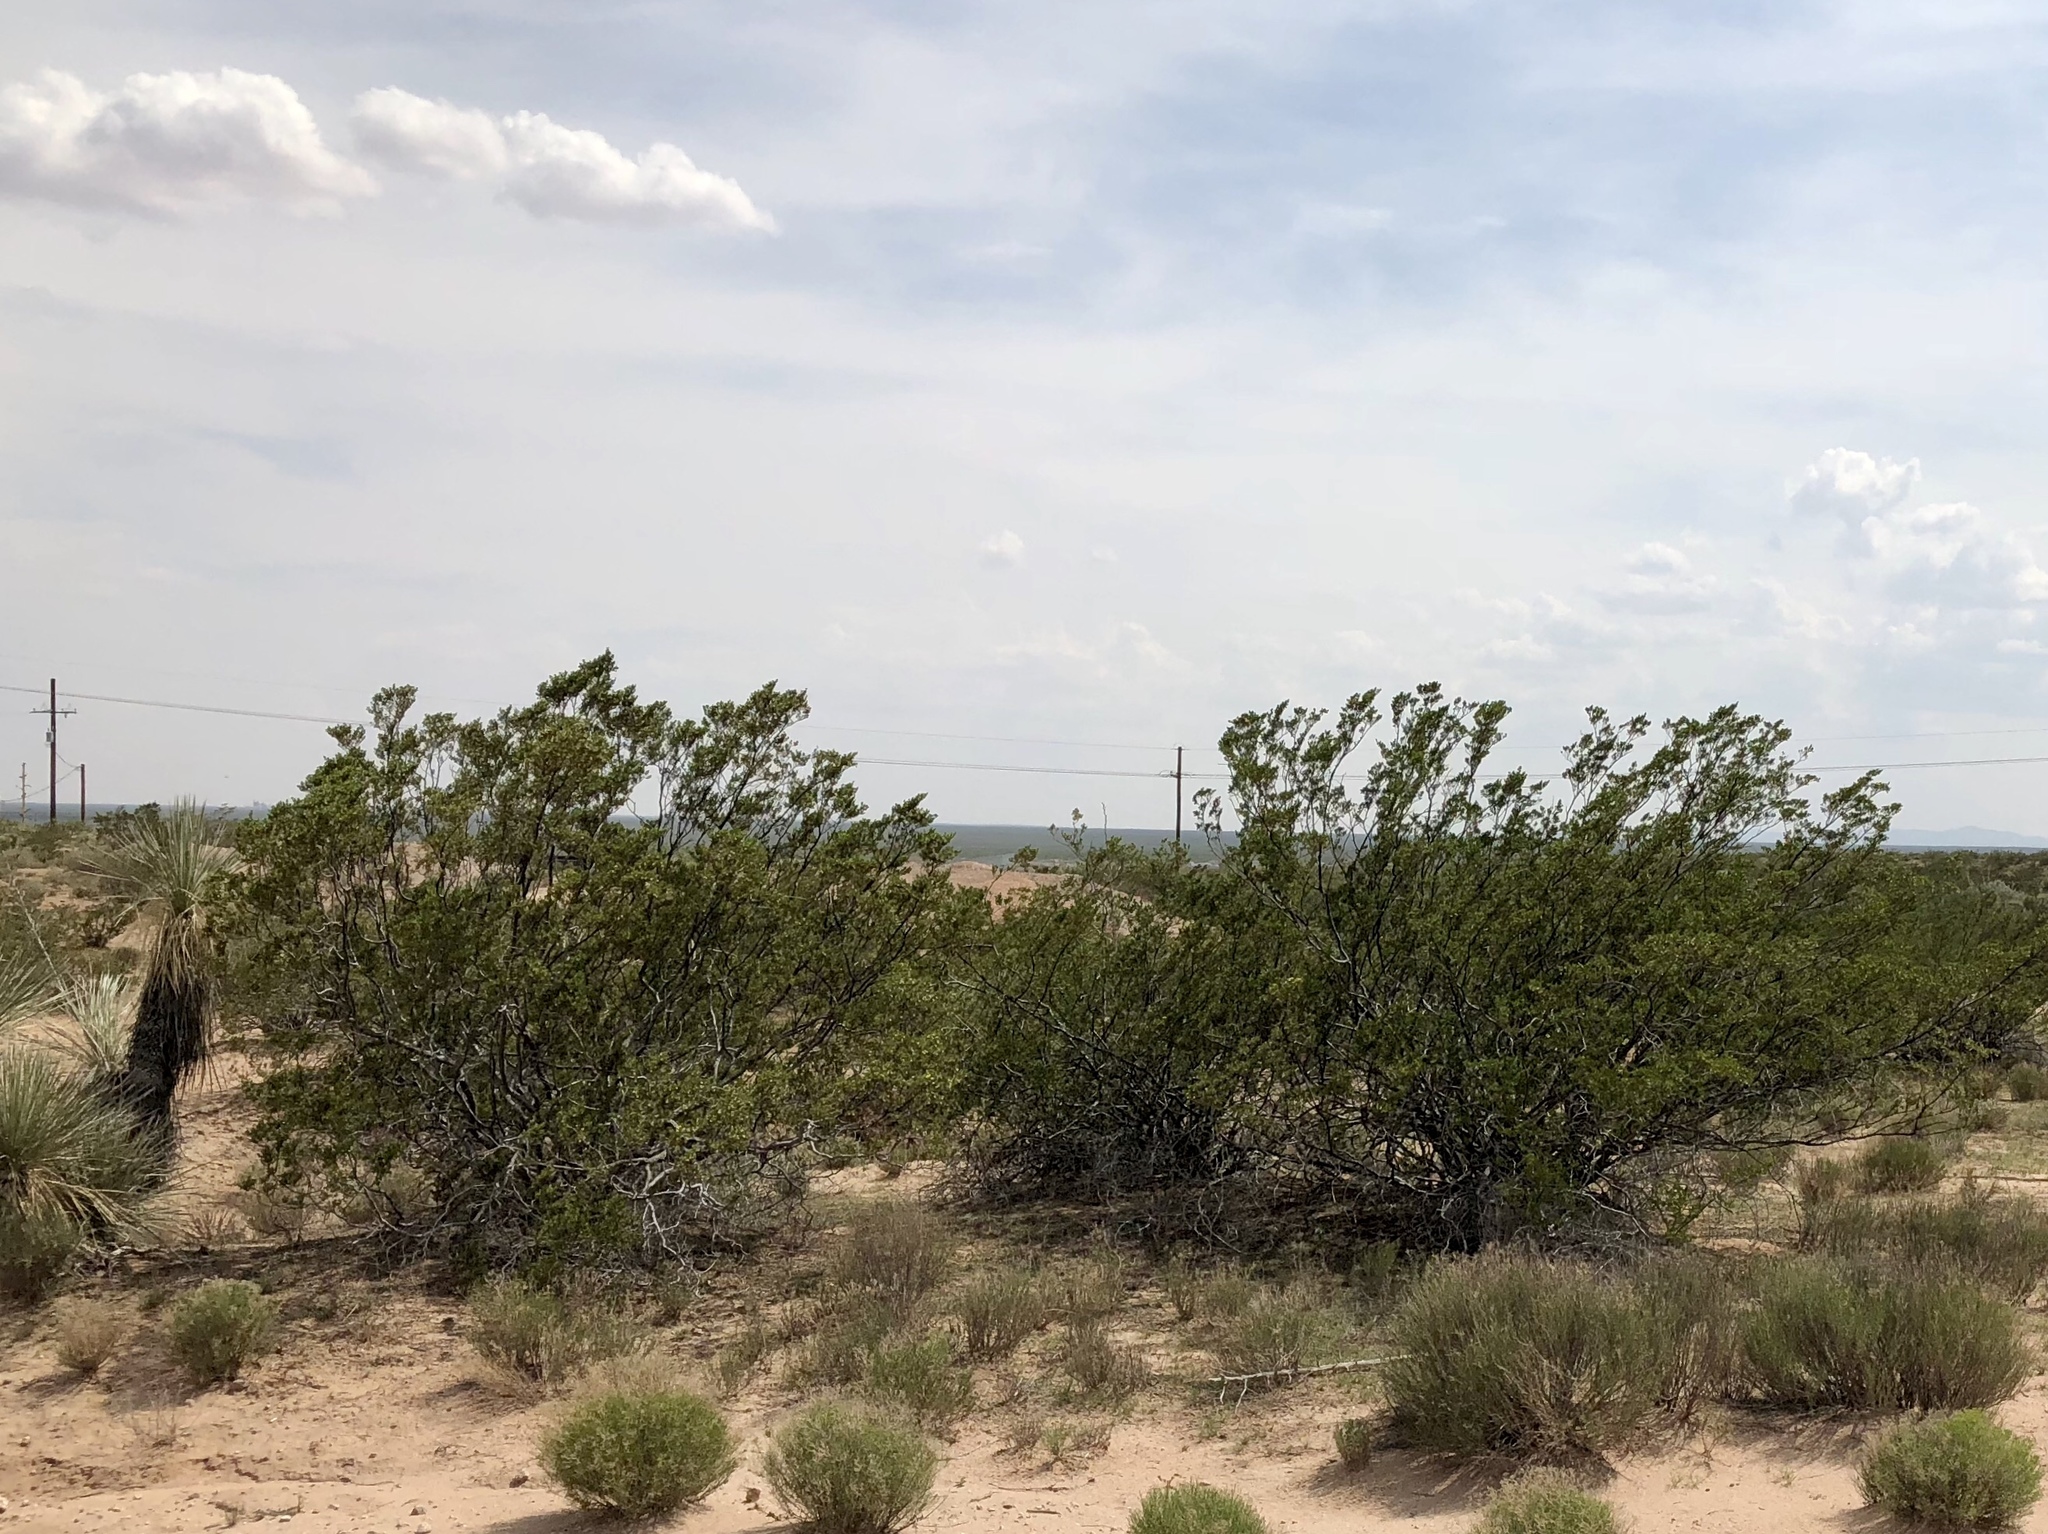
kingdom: Plantae
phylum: Tracheophyta
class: Magnoliopsida
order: Zygophyllales
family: Zygophyllaceae
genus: Larrea
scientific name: Larrea tridentata
